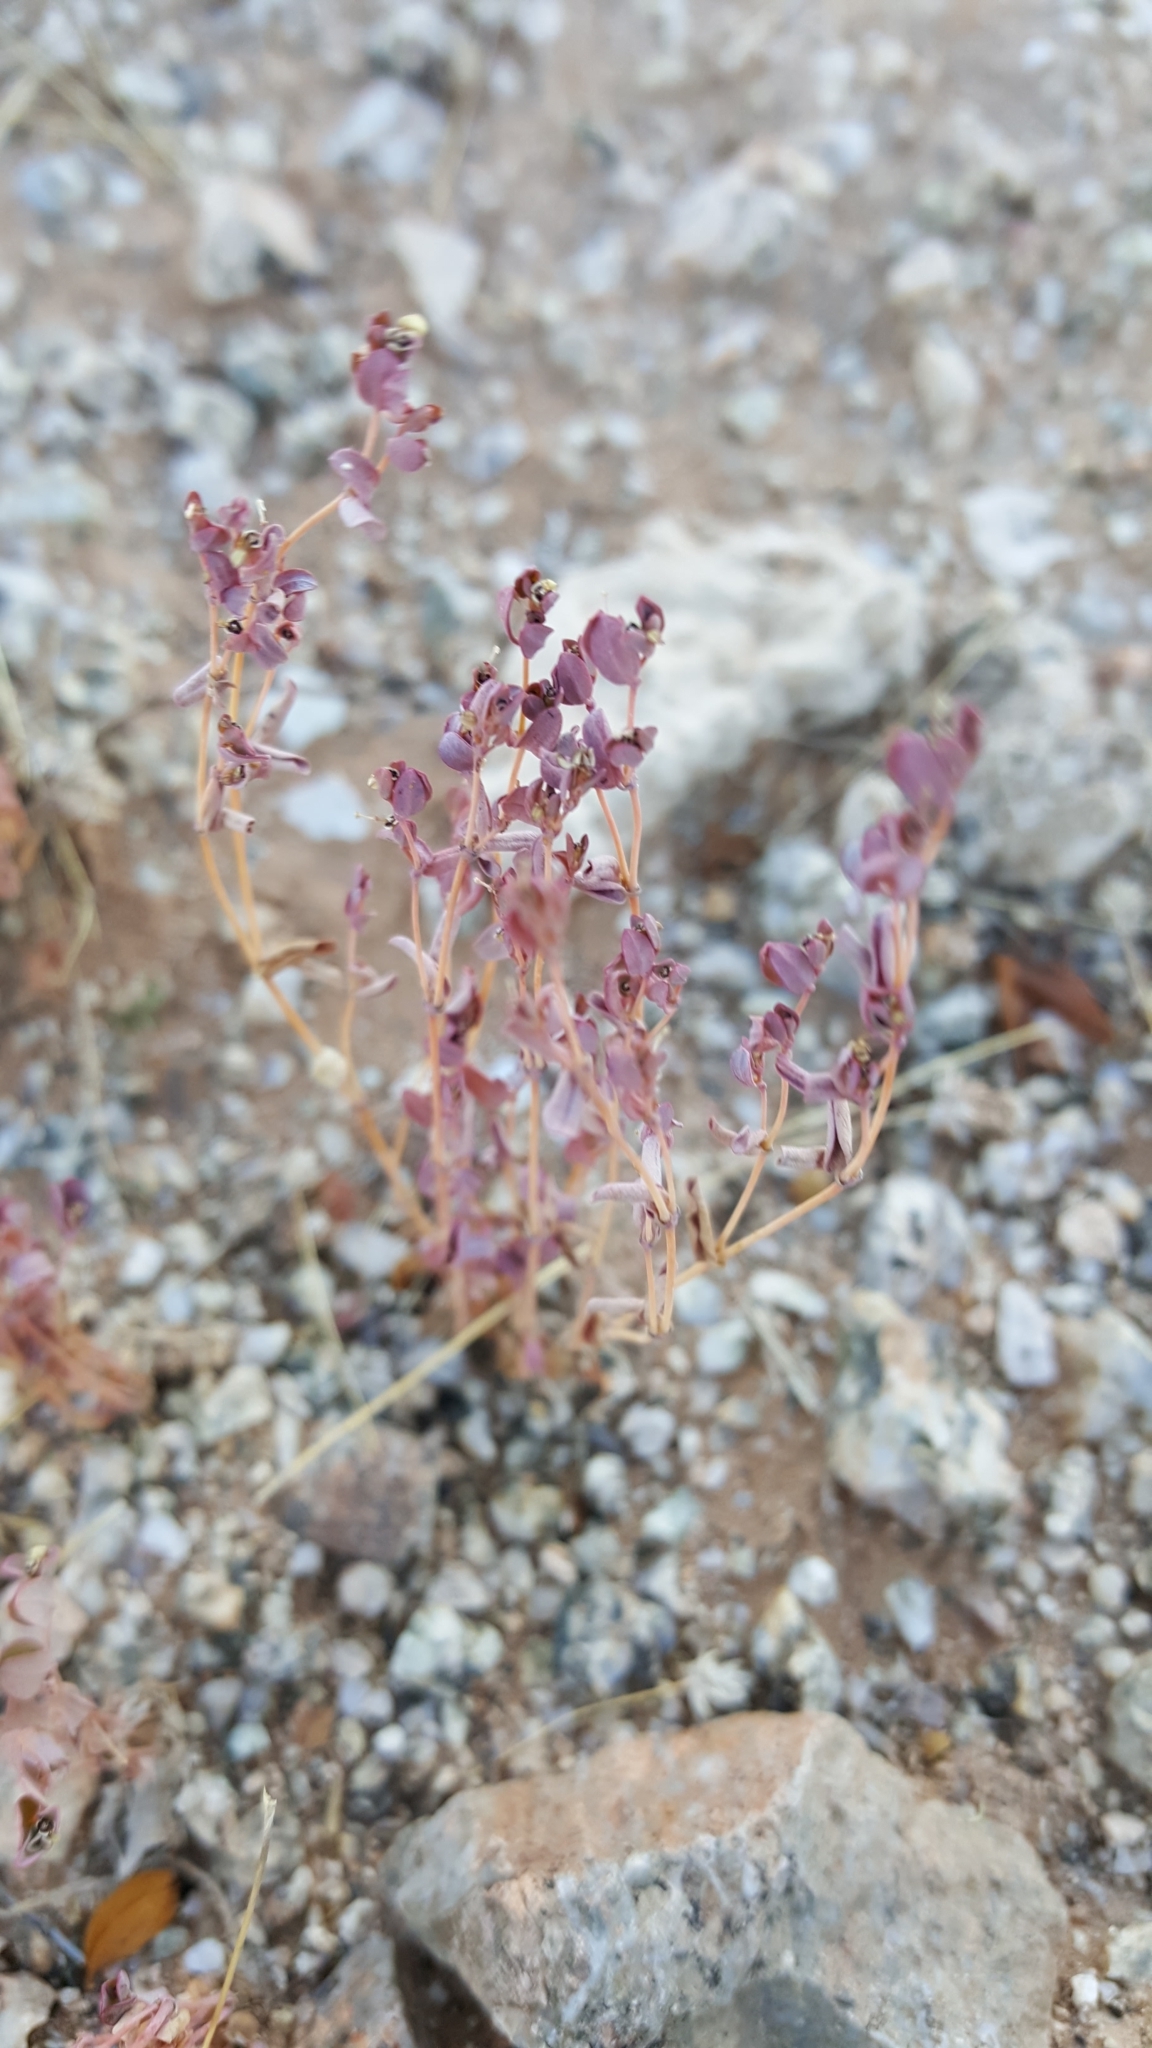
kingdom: Plantae
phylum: Tracheophyta
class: Magnoliopsida
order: Malpighiales
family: Euphorbiaceae
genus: Euphorbia
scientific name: Euphorbia polycarpa
